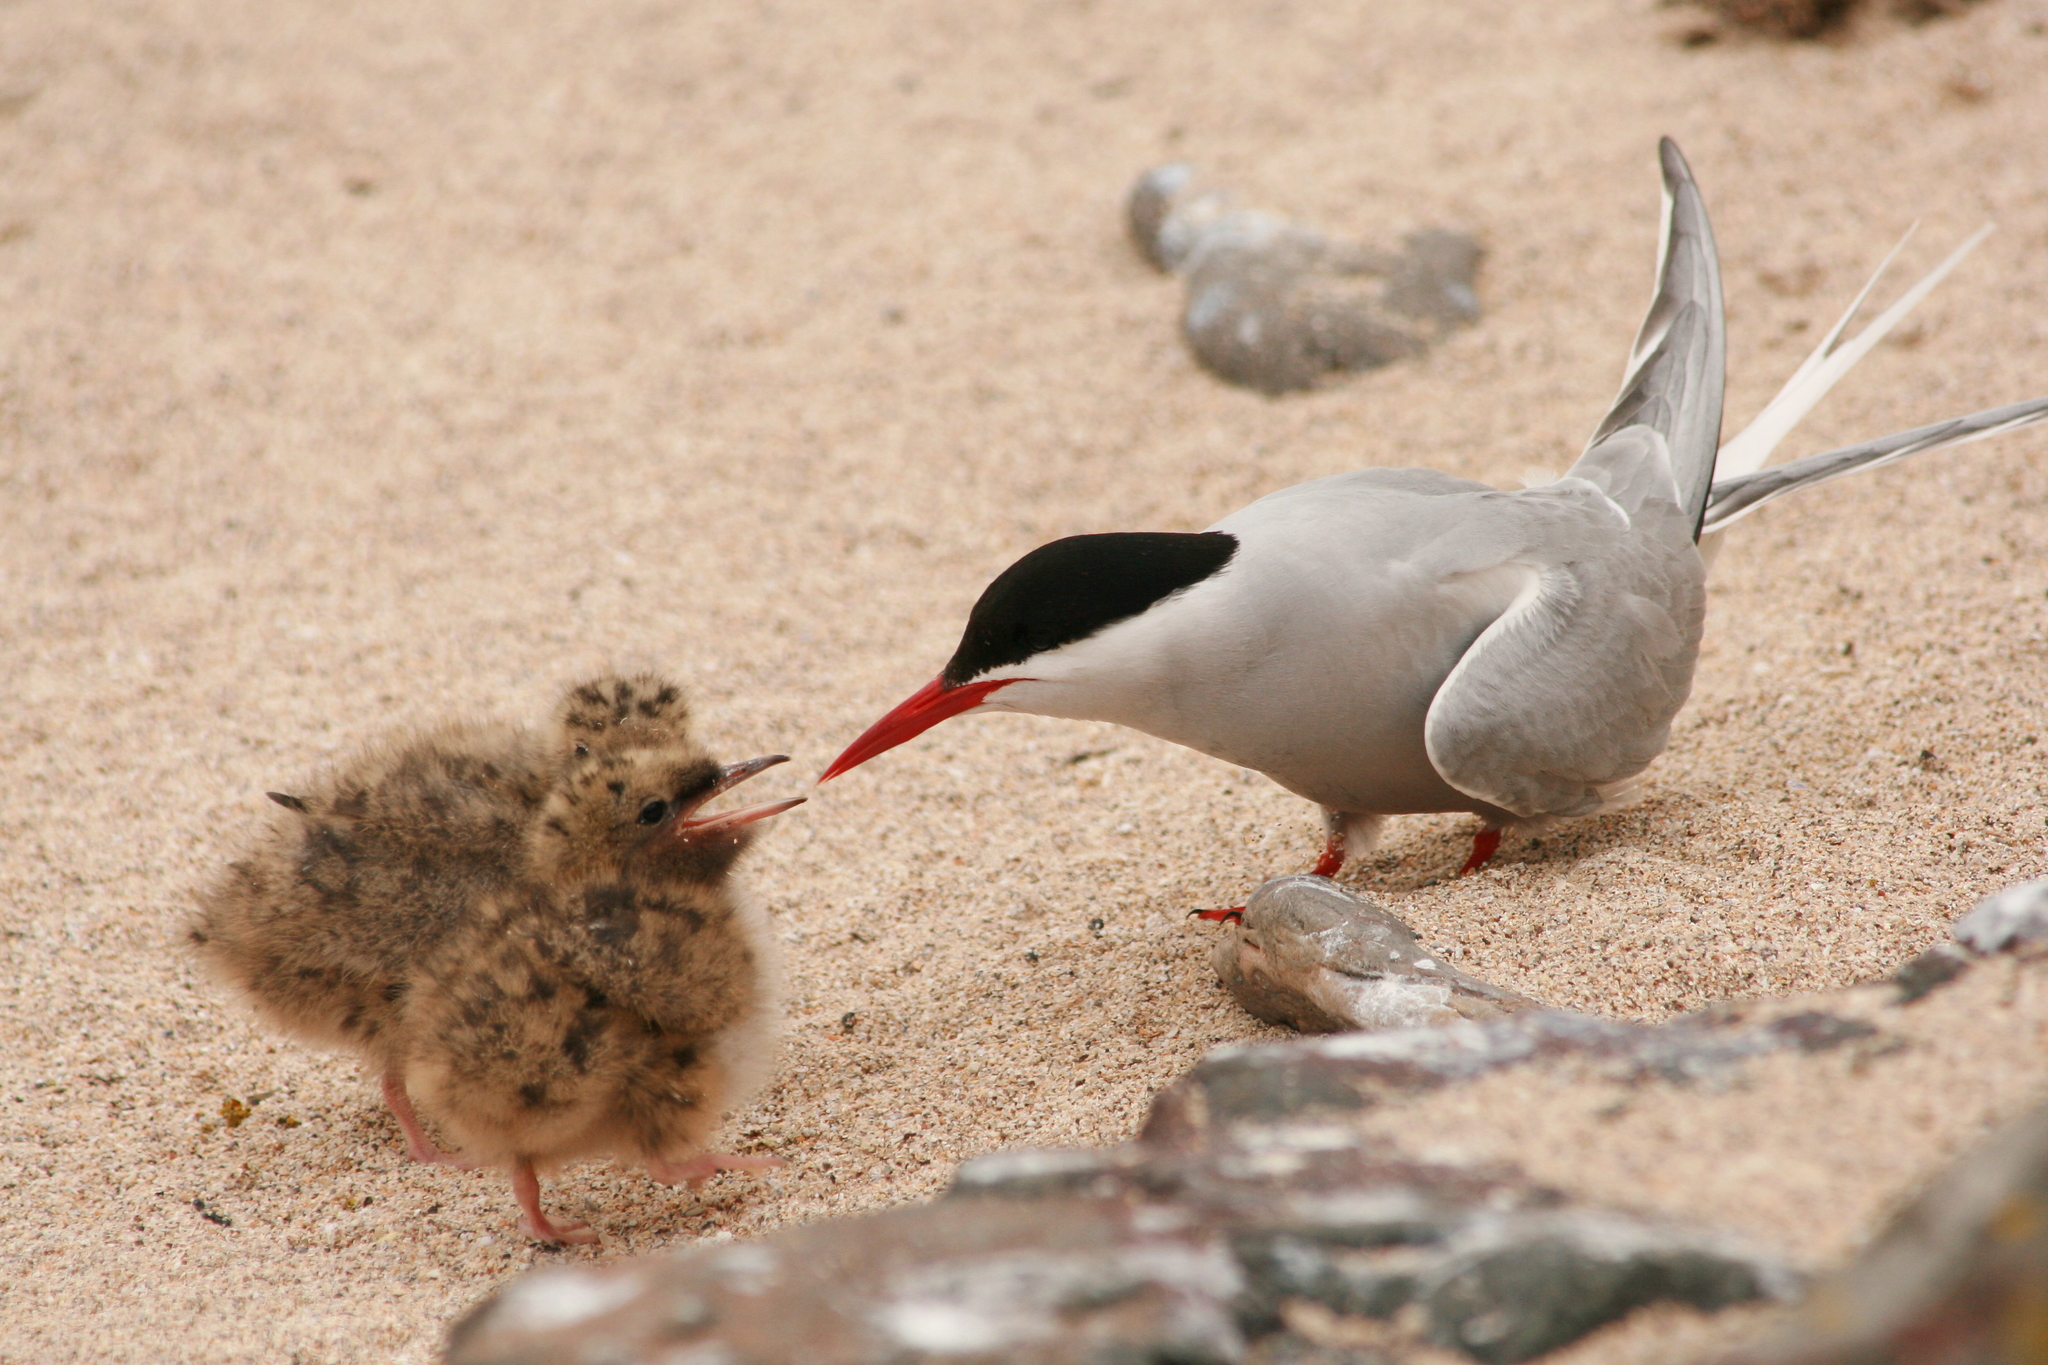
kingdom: Animalia
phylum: Chordata
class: Aves
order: Charadriiformes
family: Laridae
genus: Sterna
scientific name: Sterna paradisaea
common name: Arctic tern
